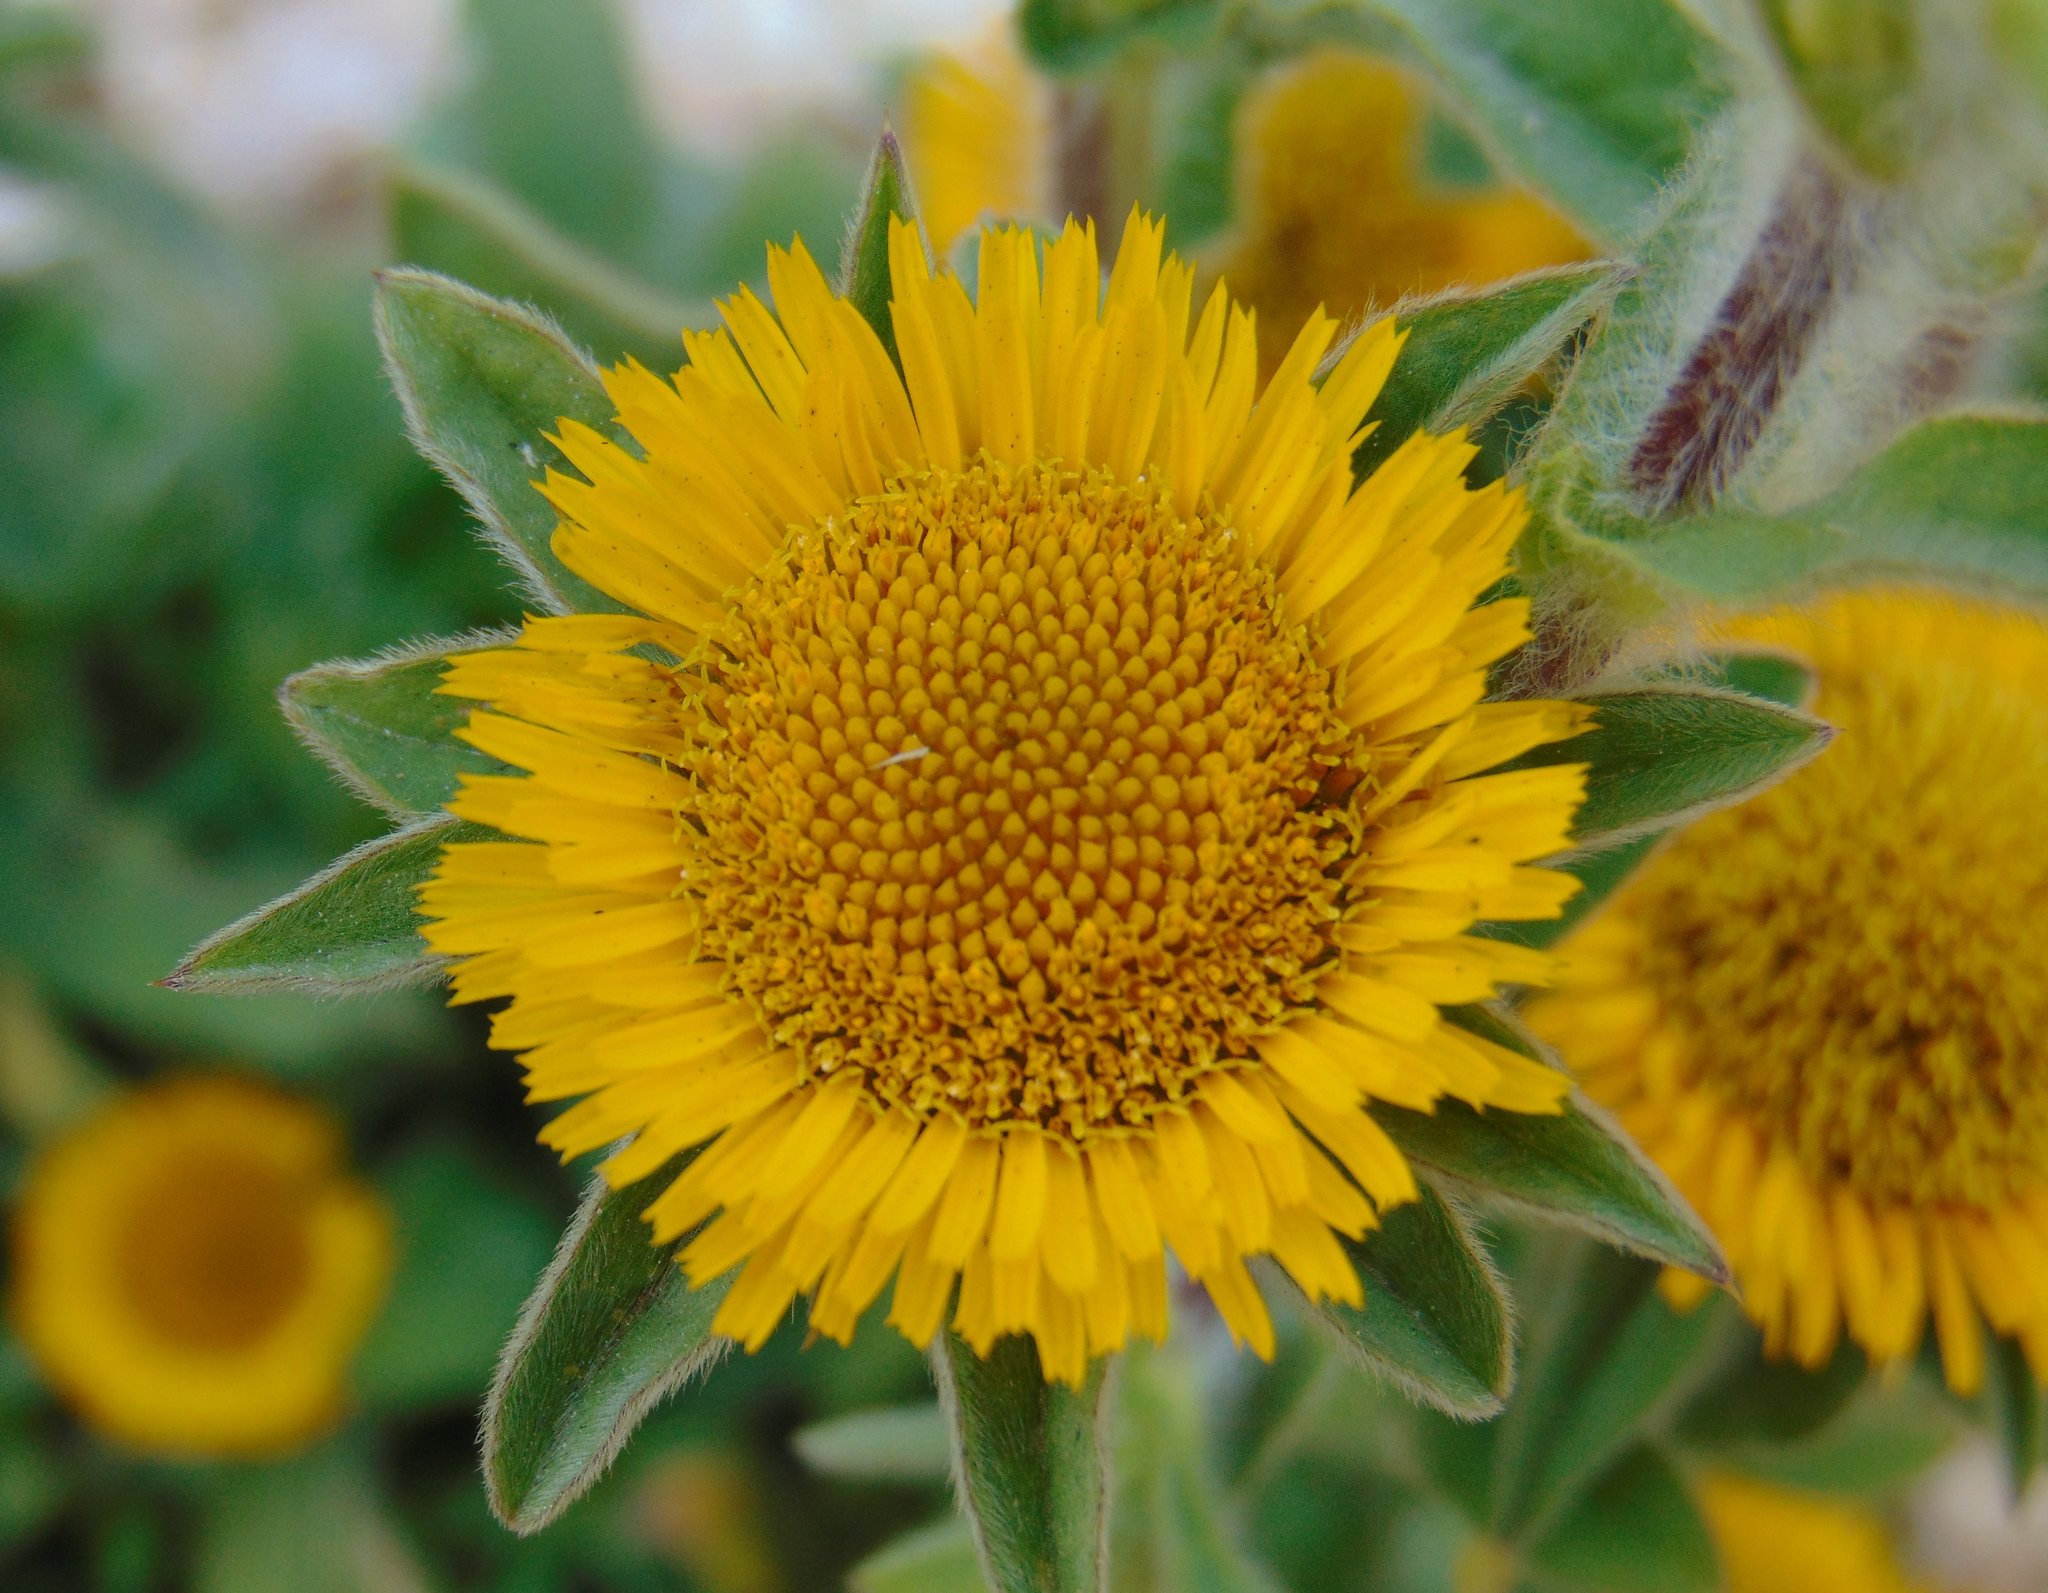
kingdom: Plantae
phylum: Tracheophyta
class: Magnoliopsida
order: Asterales
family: Asteraceae
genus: Pallenis
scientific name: Pallenis spinosa
